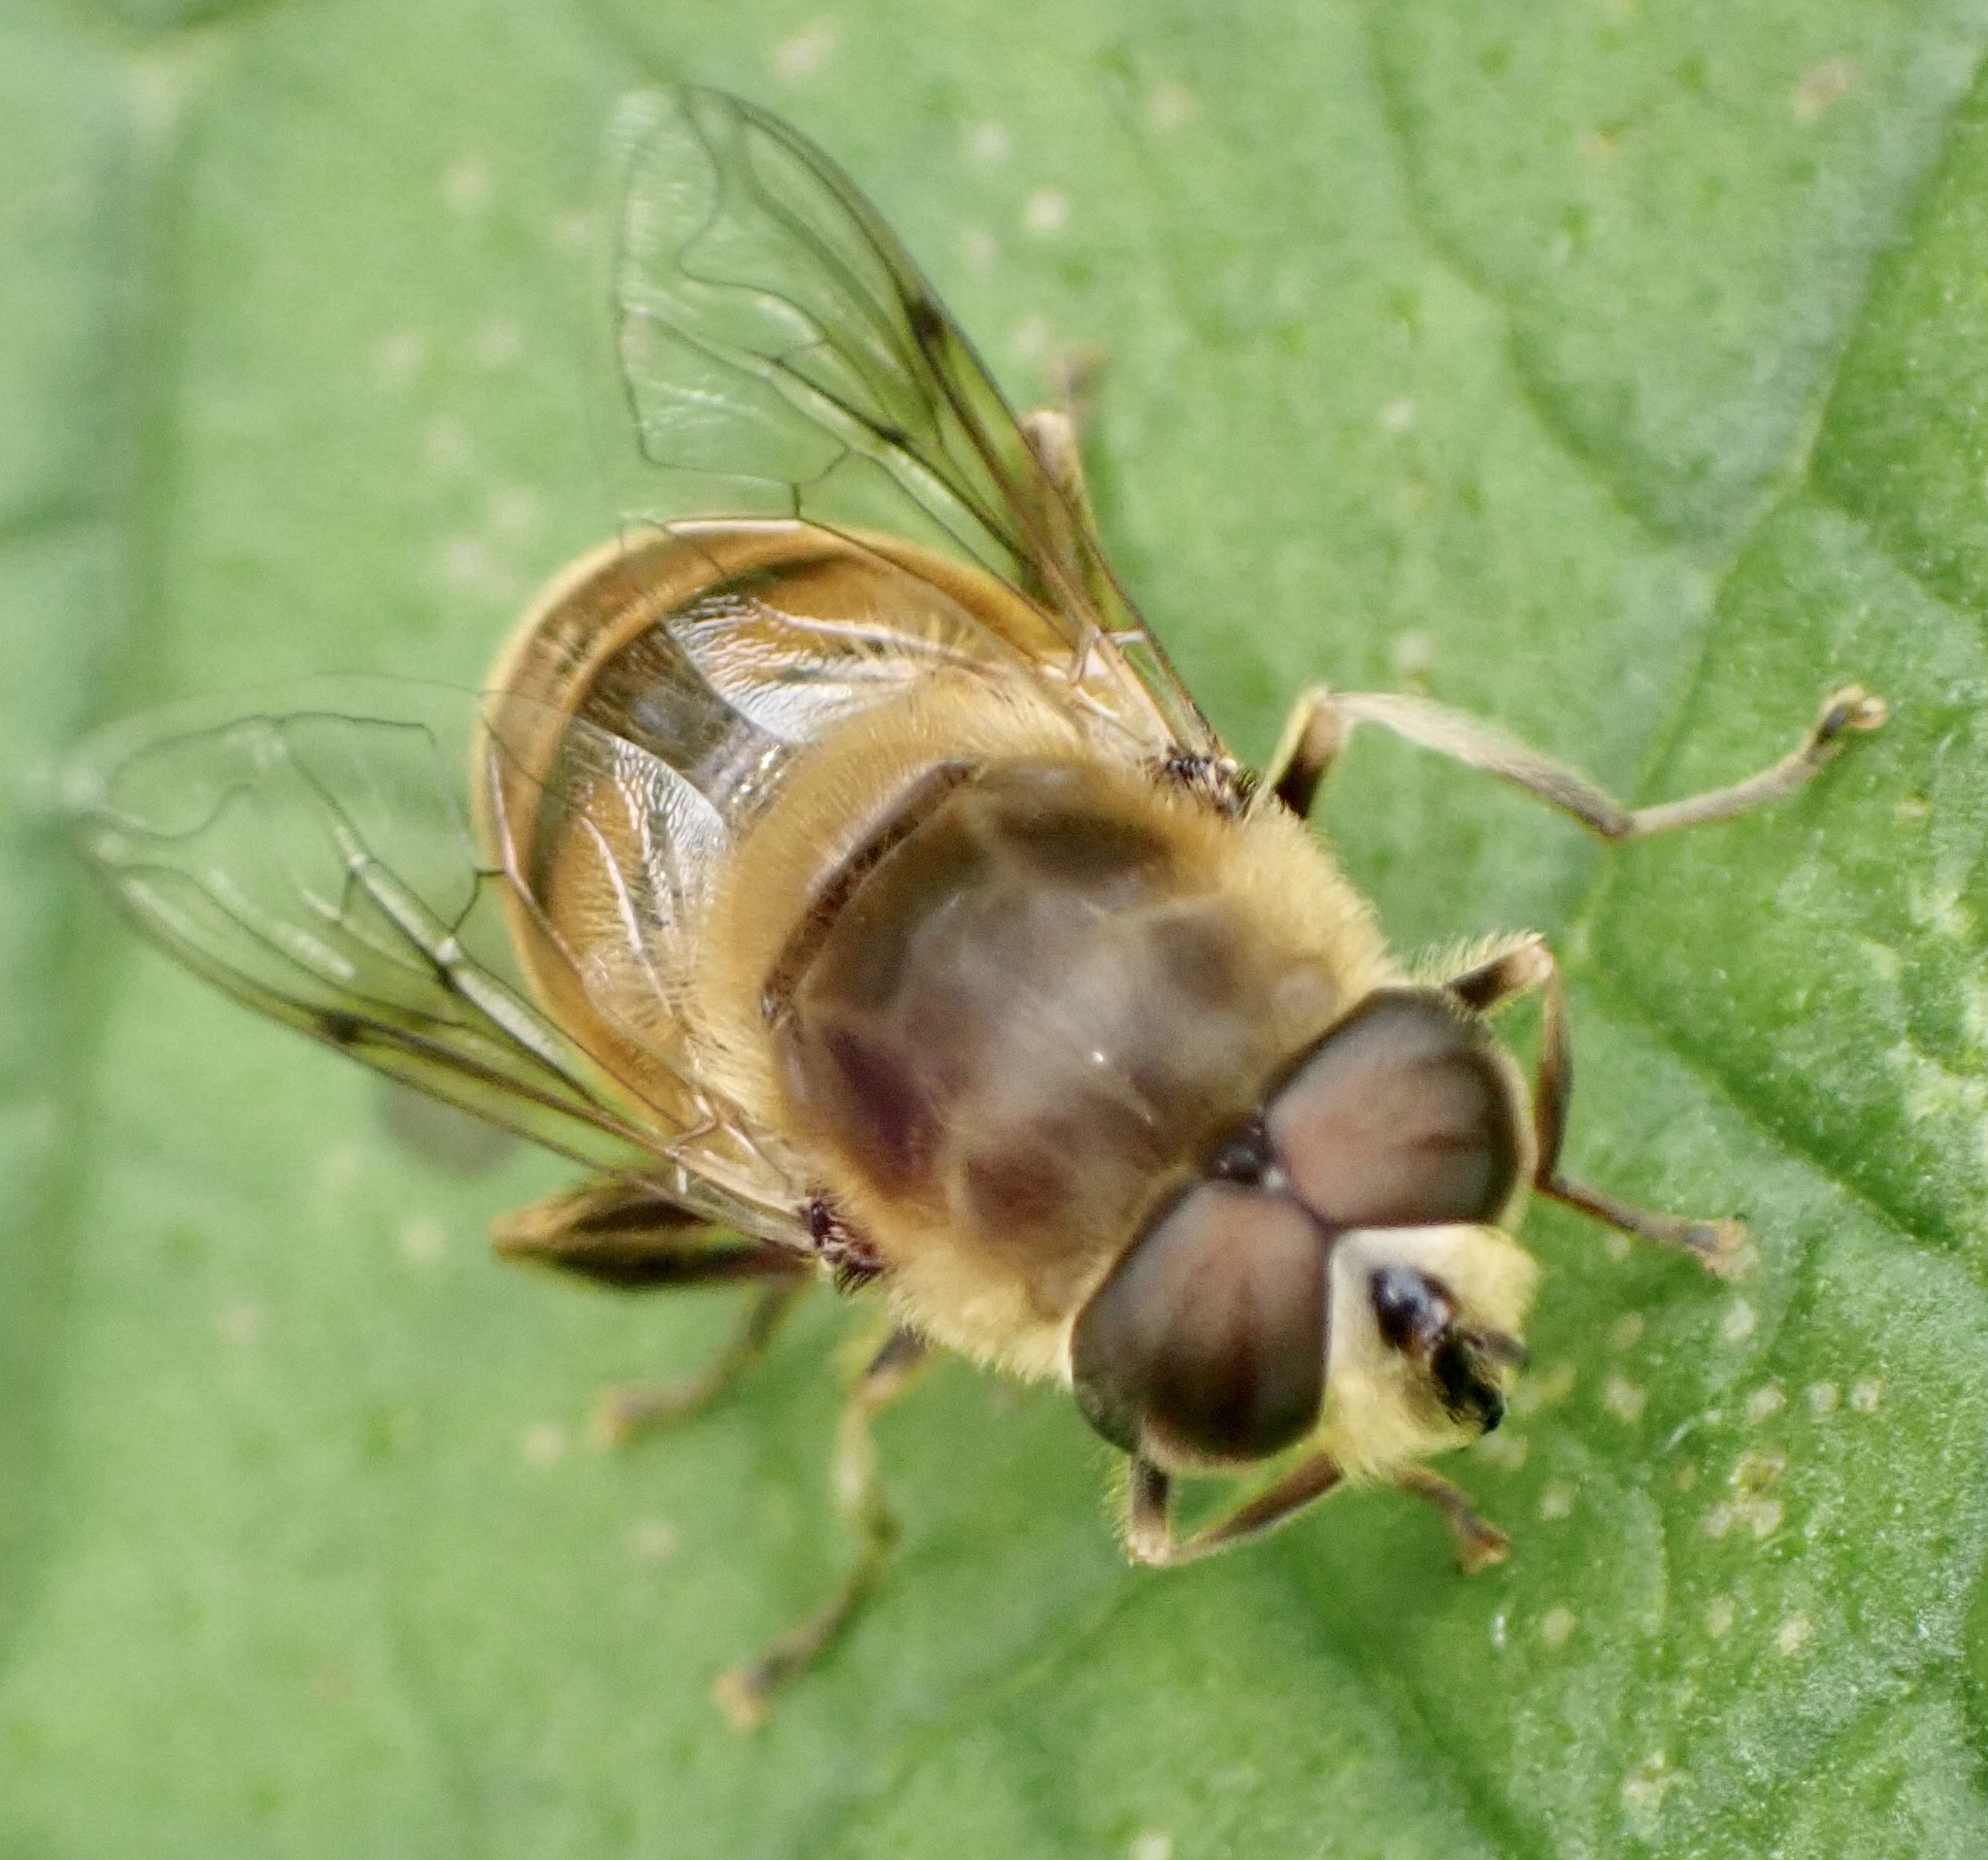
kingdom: Animalia
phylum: Arthropoda
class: Insecta
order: Diptera
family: Syrphidae
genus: Eristalis
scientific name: Eristalis tenax
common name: Drone fly
